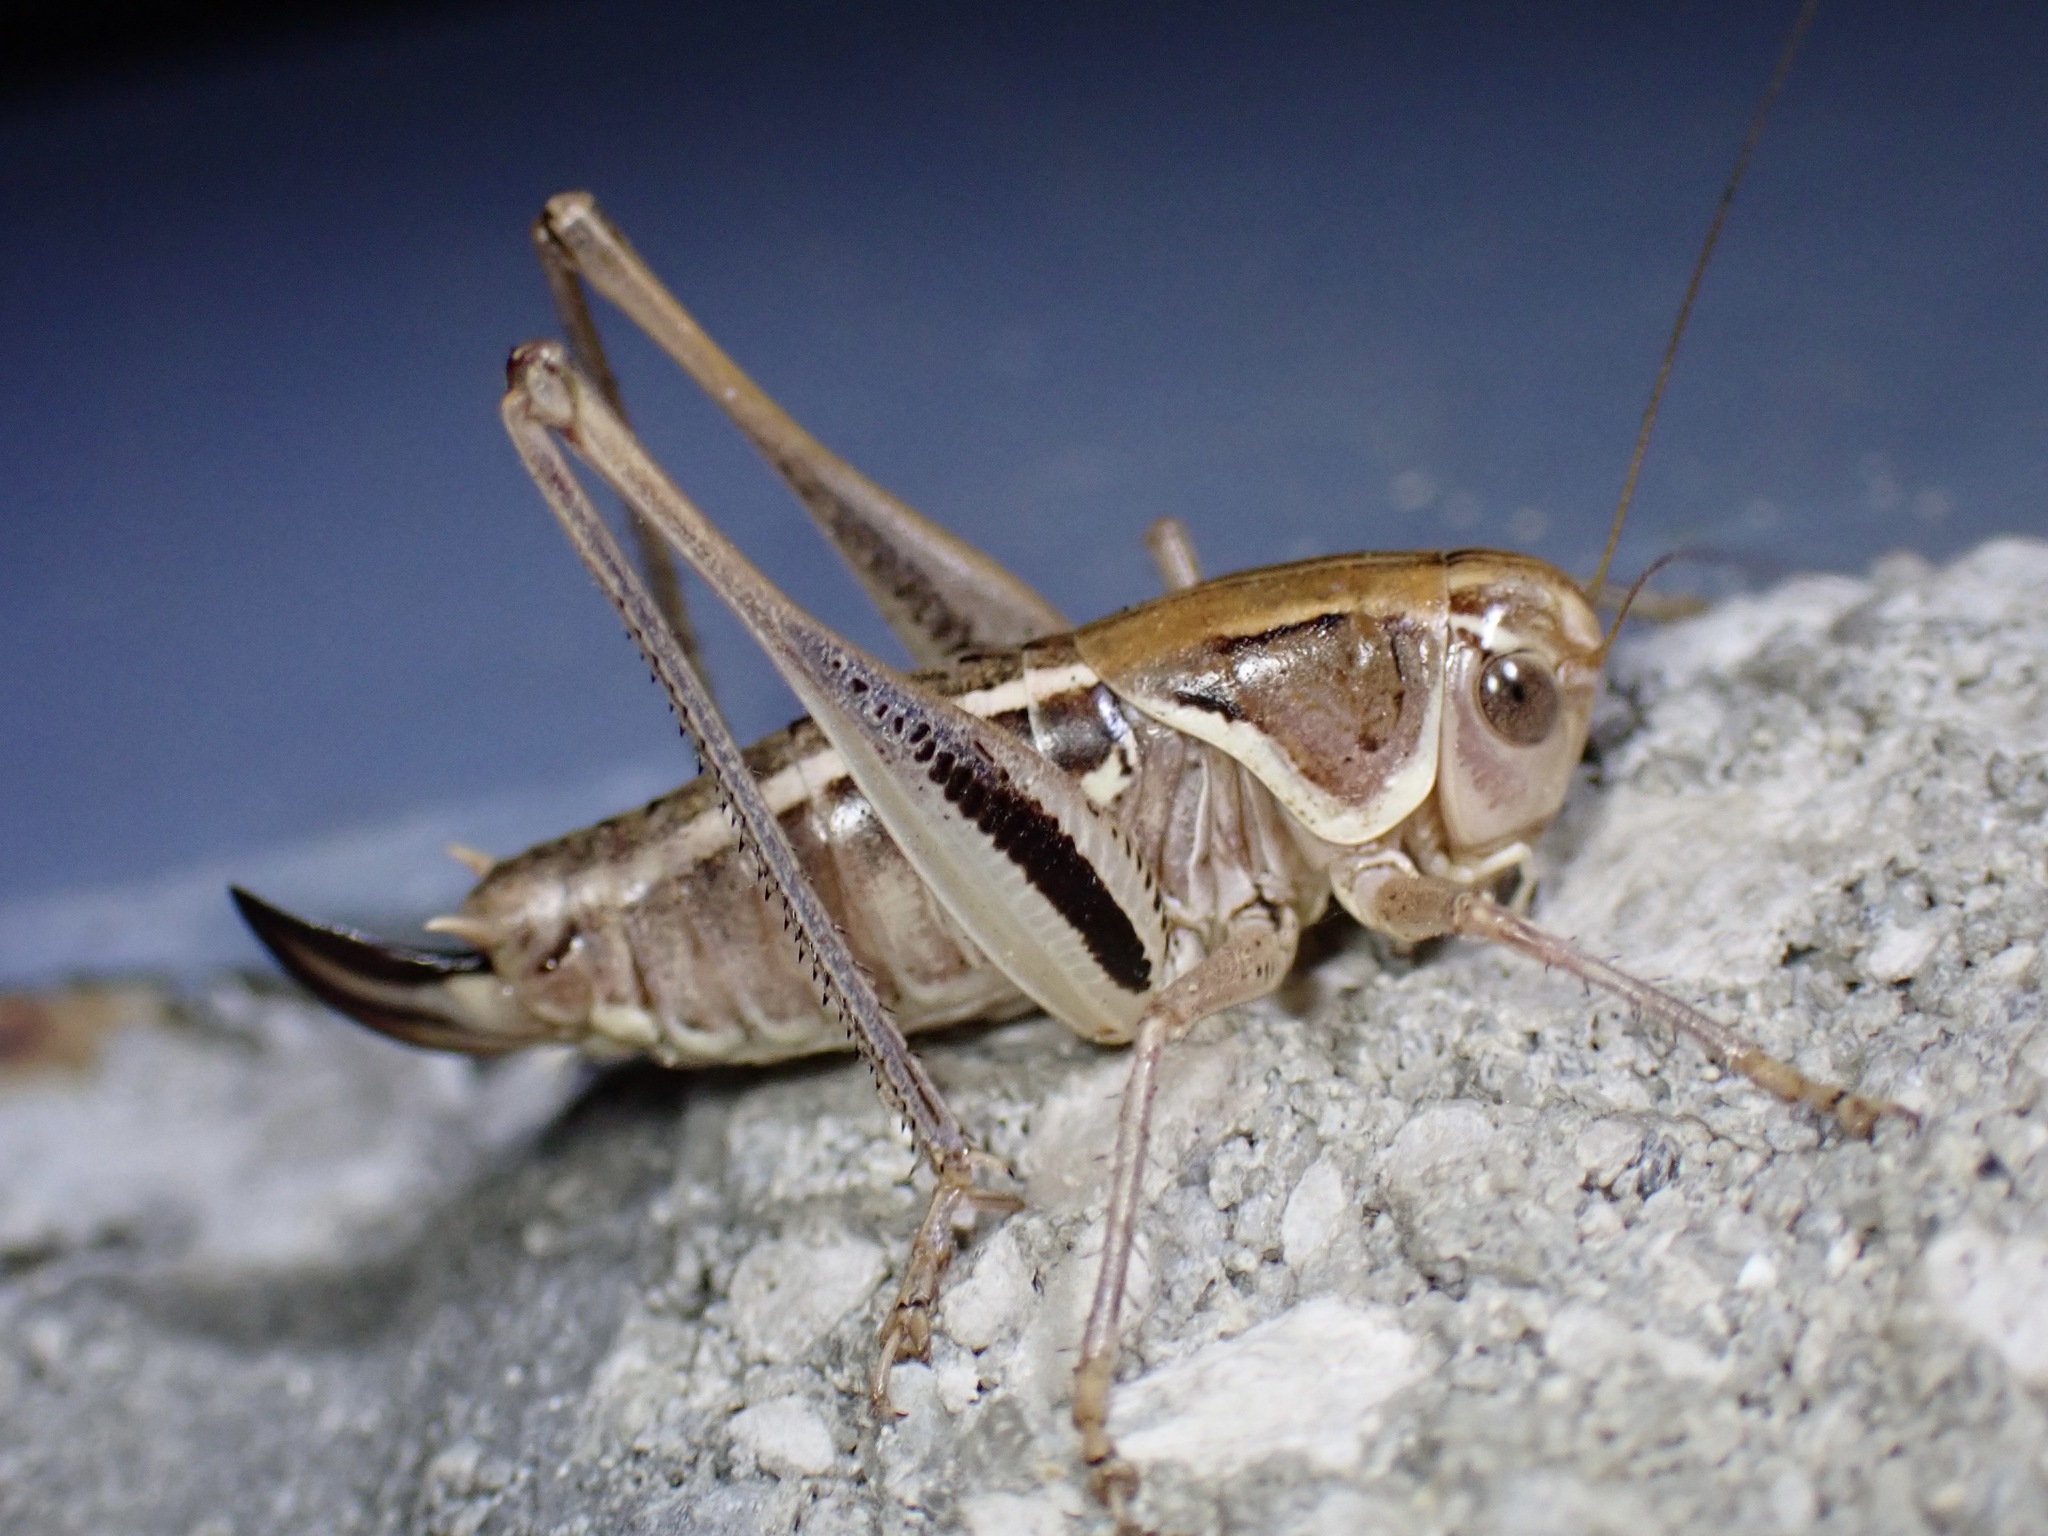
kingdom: Animalia
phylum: Arthropoda
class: Insecta
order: Orthoptera
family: Tettigoniidae
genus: Decticita
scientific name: Decticita brevicauda
